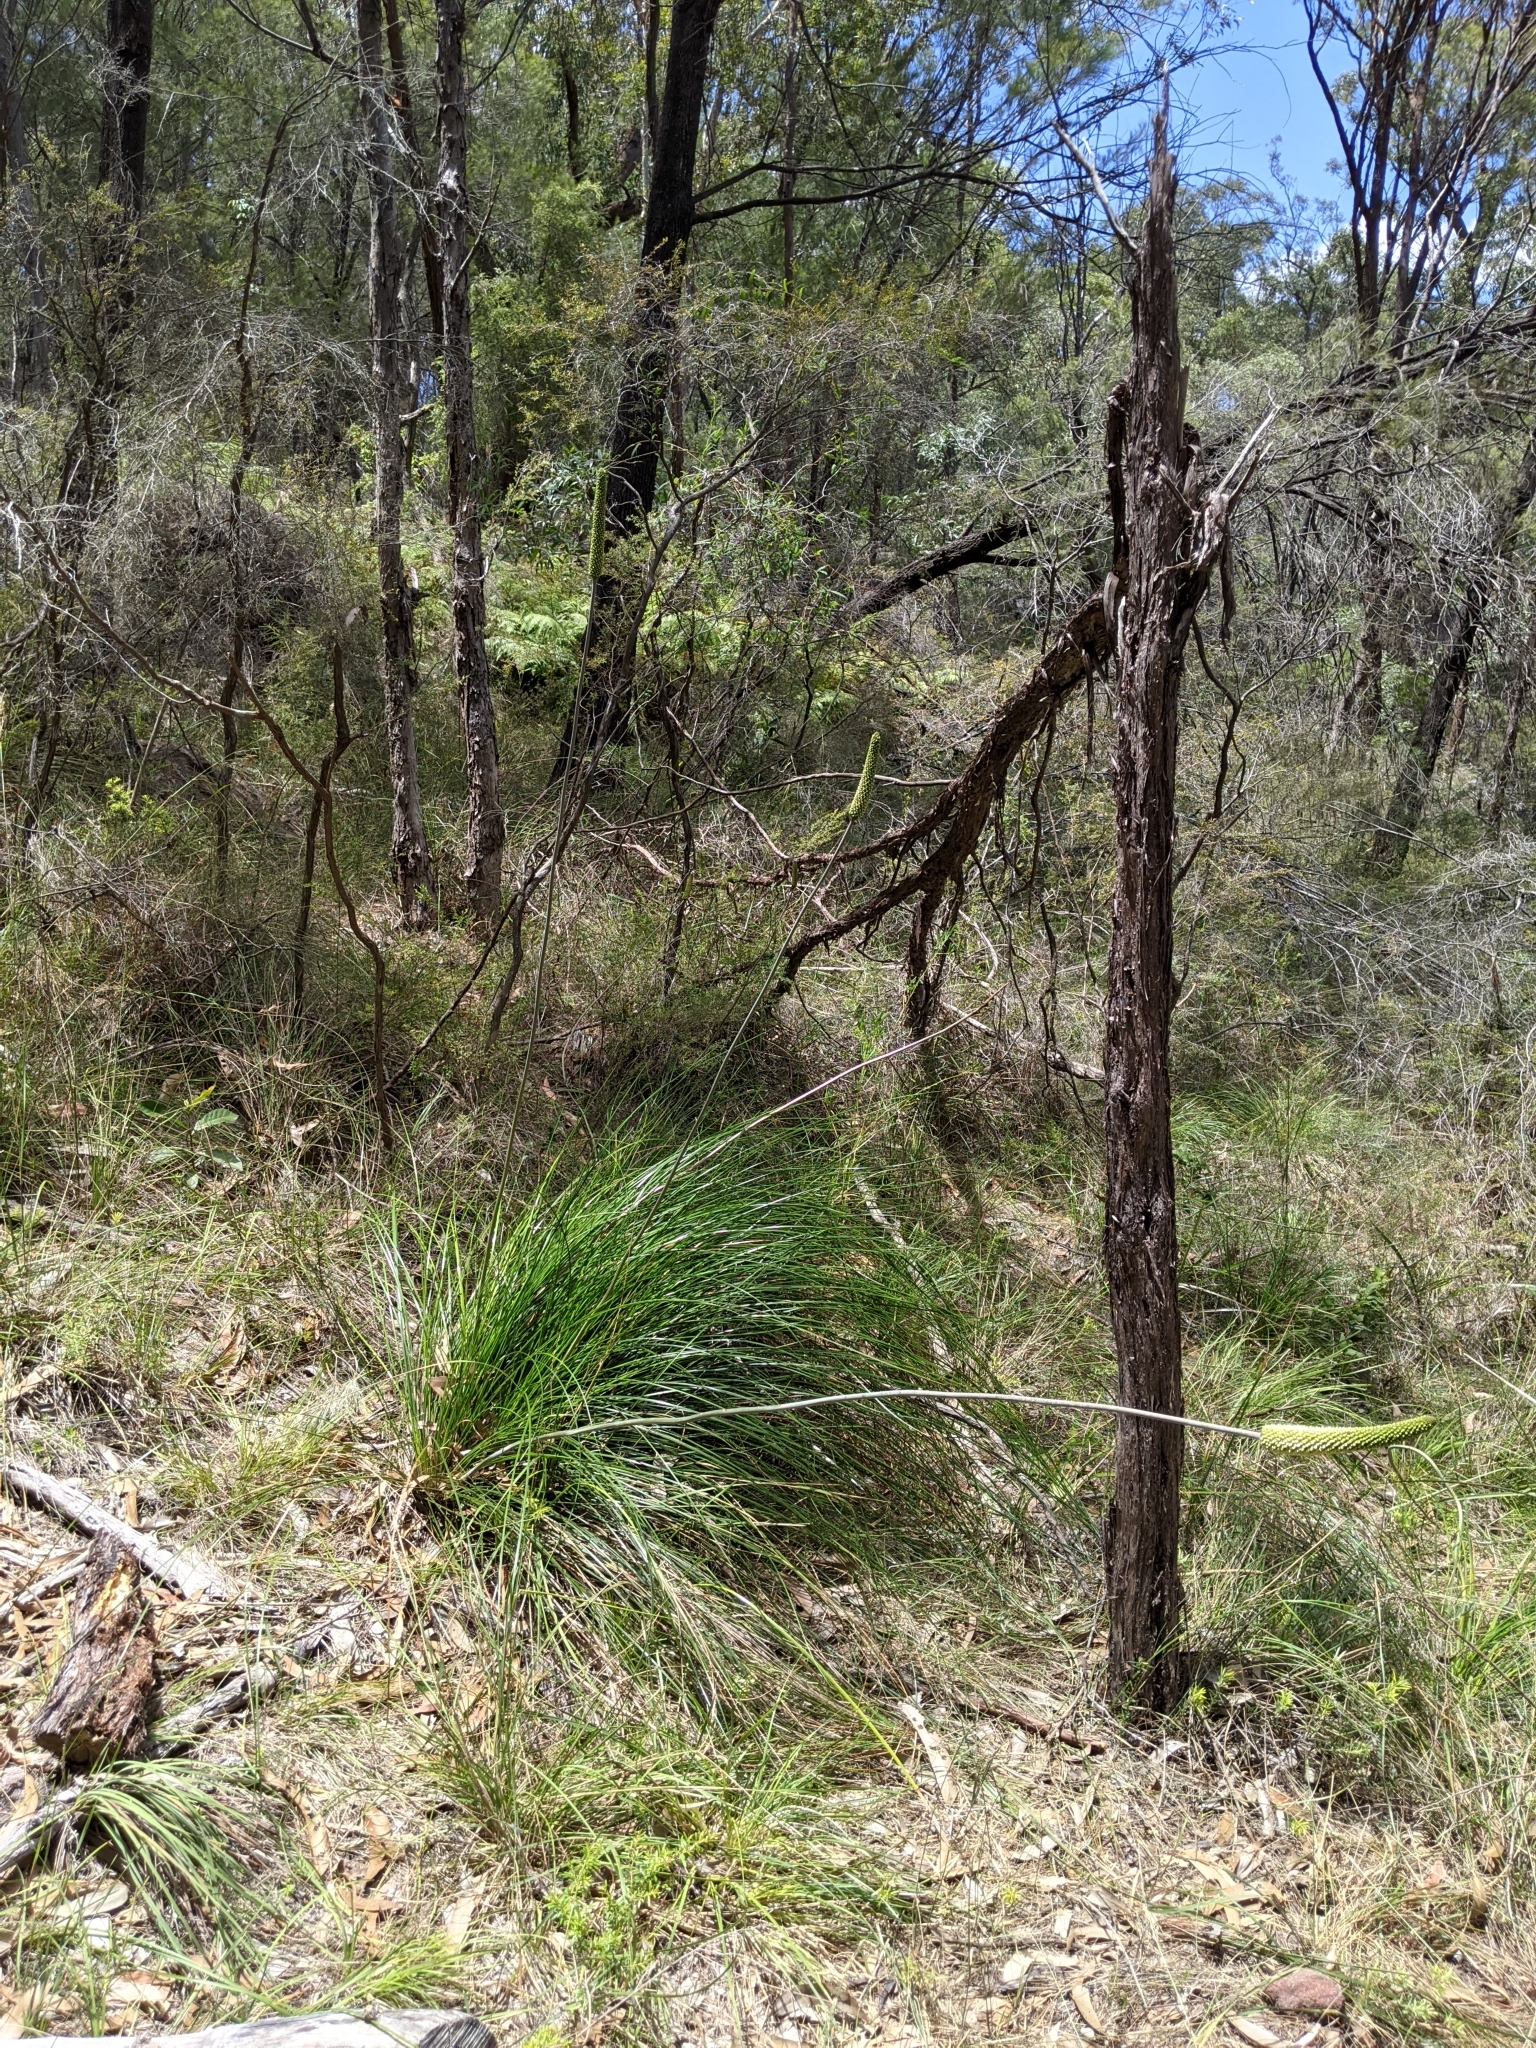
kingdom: Plantae
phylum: Tracheophyta
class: Liliopsida
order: Asparagales
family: Asphodelaceae
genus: Xanthorrhoea
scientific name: Xanthorrhoea macronema
